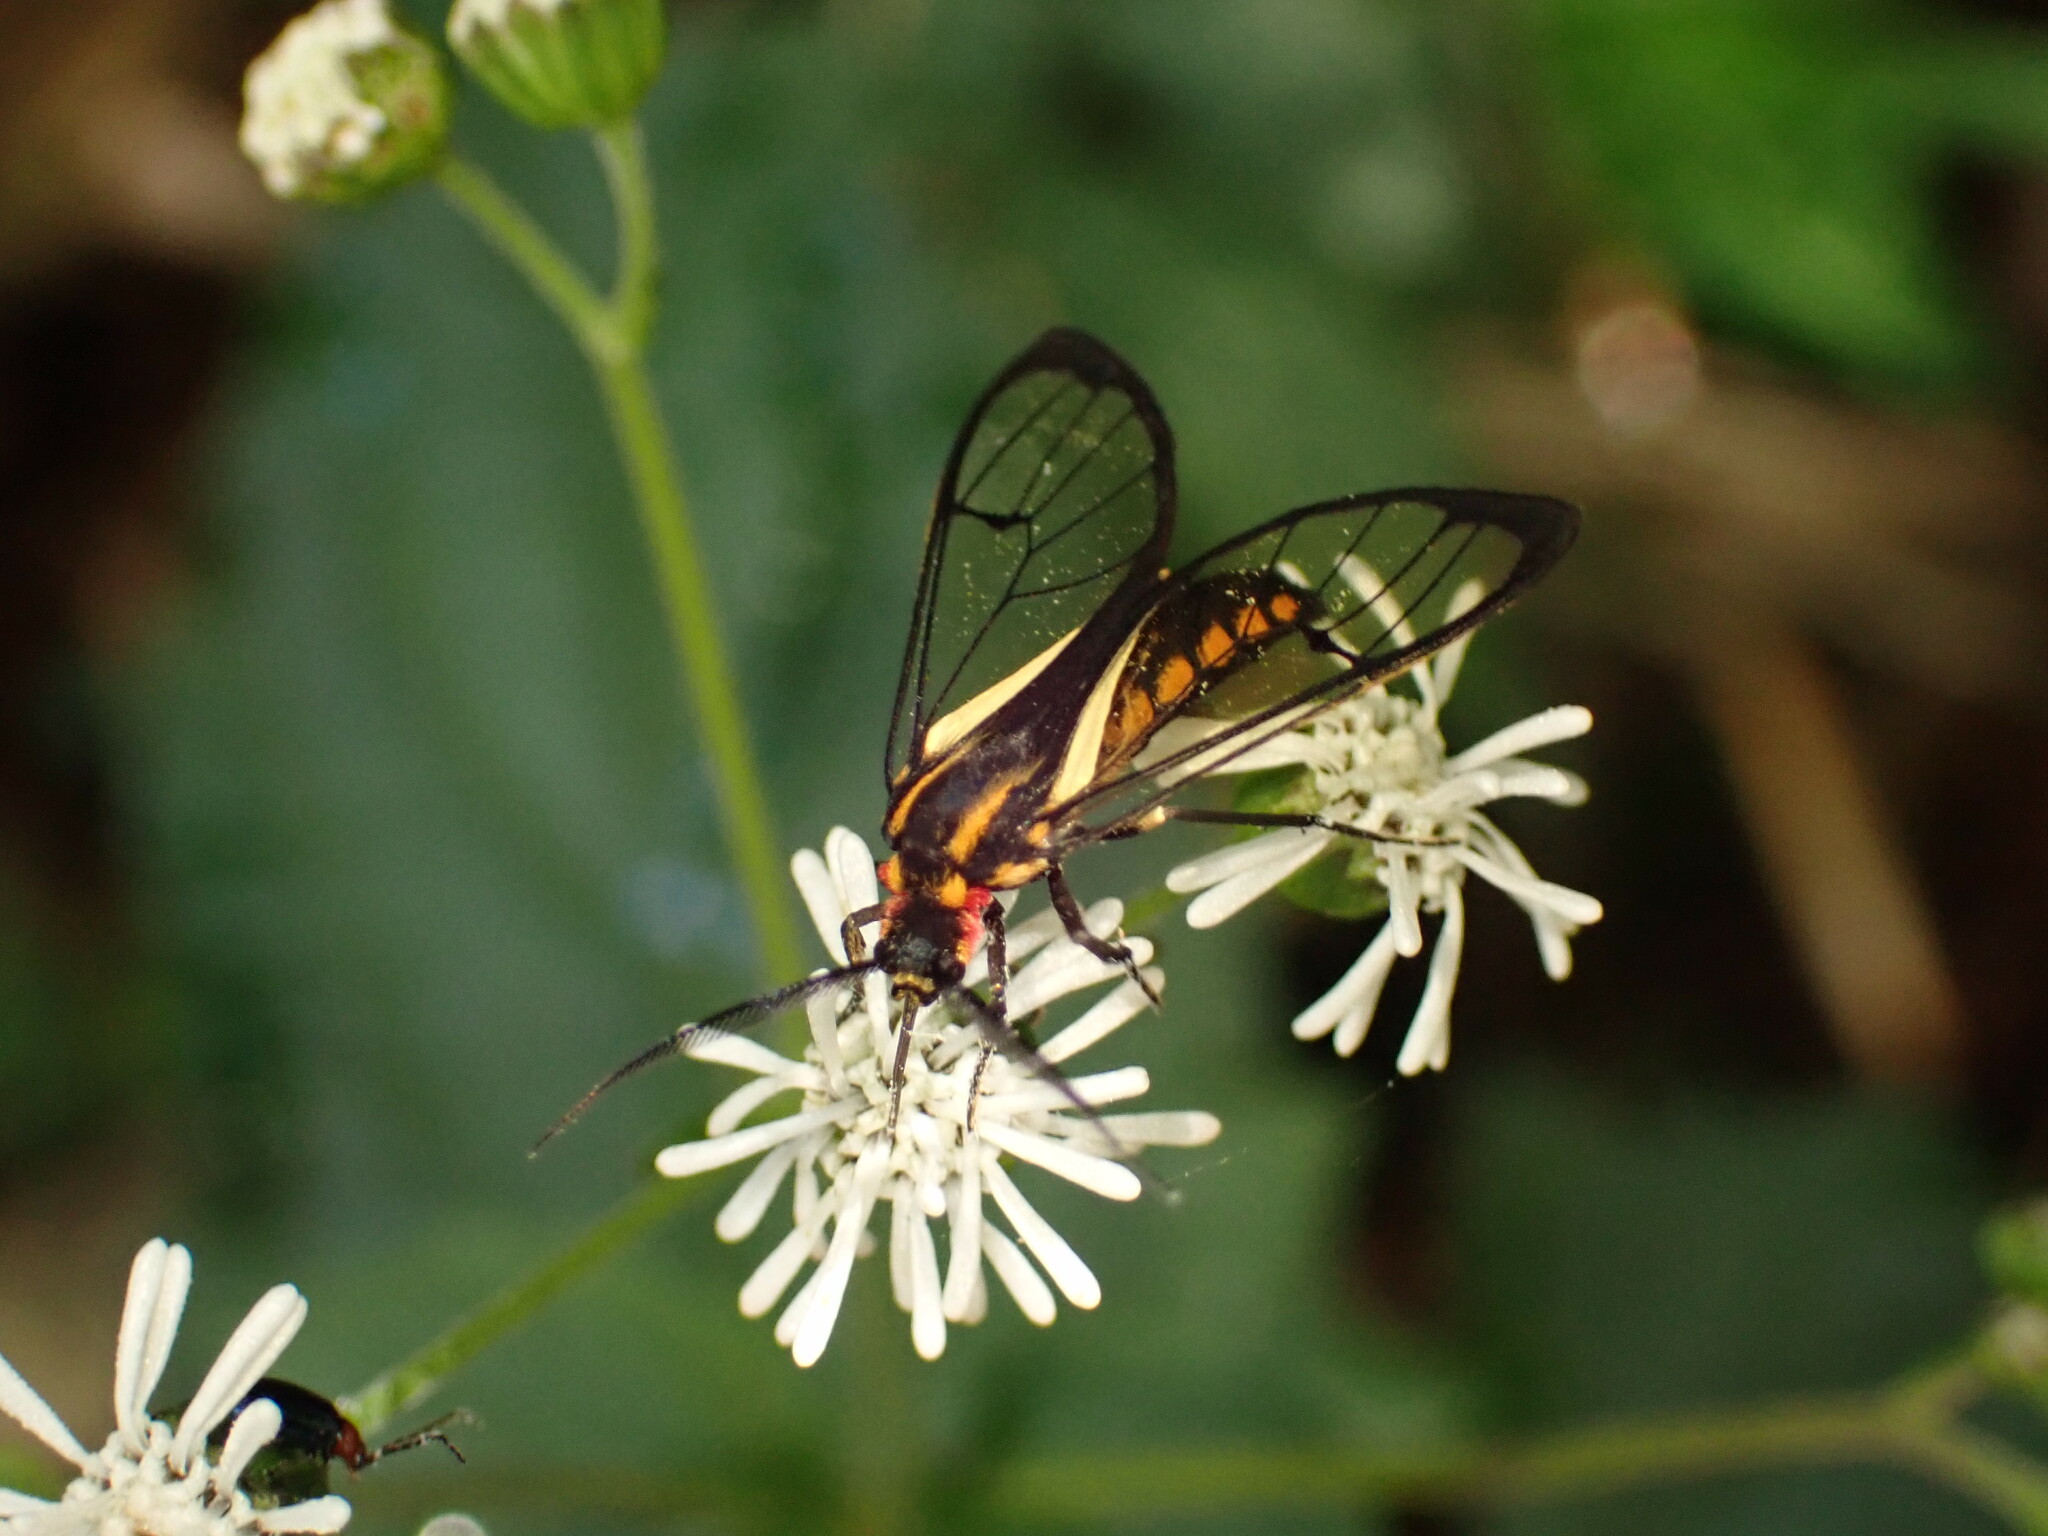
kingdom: Animalia
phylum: Arthropoda
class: Insecta
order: Lepidoptera
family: Erebidae
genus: Diptilon
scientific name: Diptilon doeri
